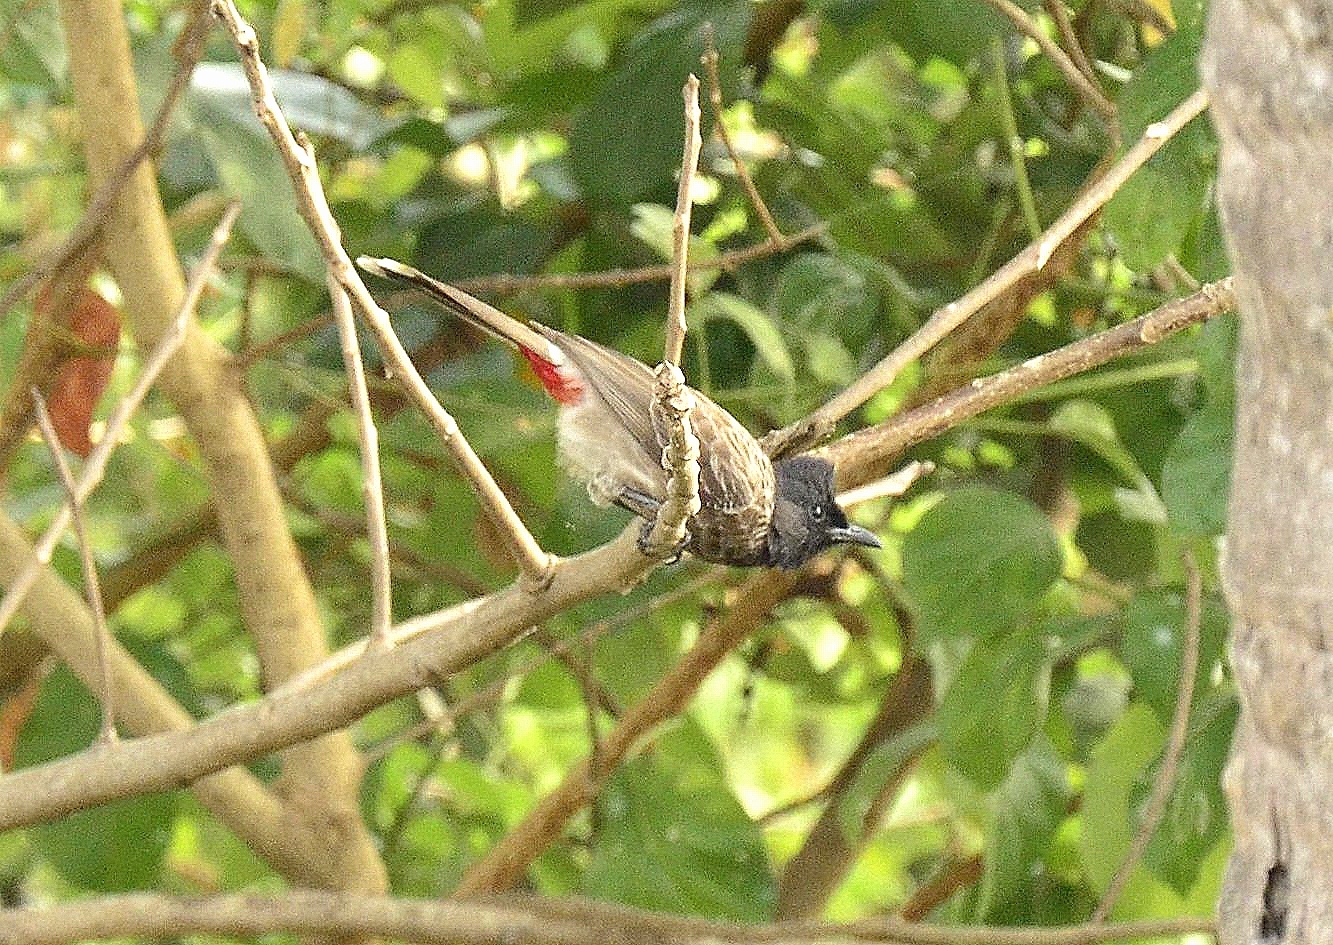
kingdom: Animalia
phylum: Chordata
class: Aves
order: Passeriformes
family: Pycnonotidae
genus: Pycnonotus
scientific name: Pycnonotus cafer
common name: Red-vented bulbul
